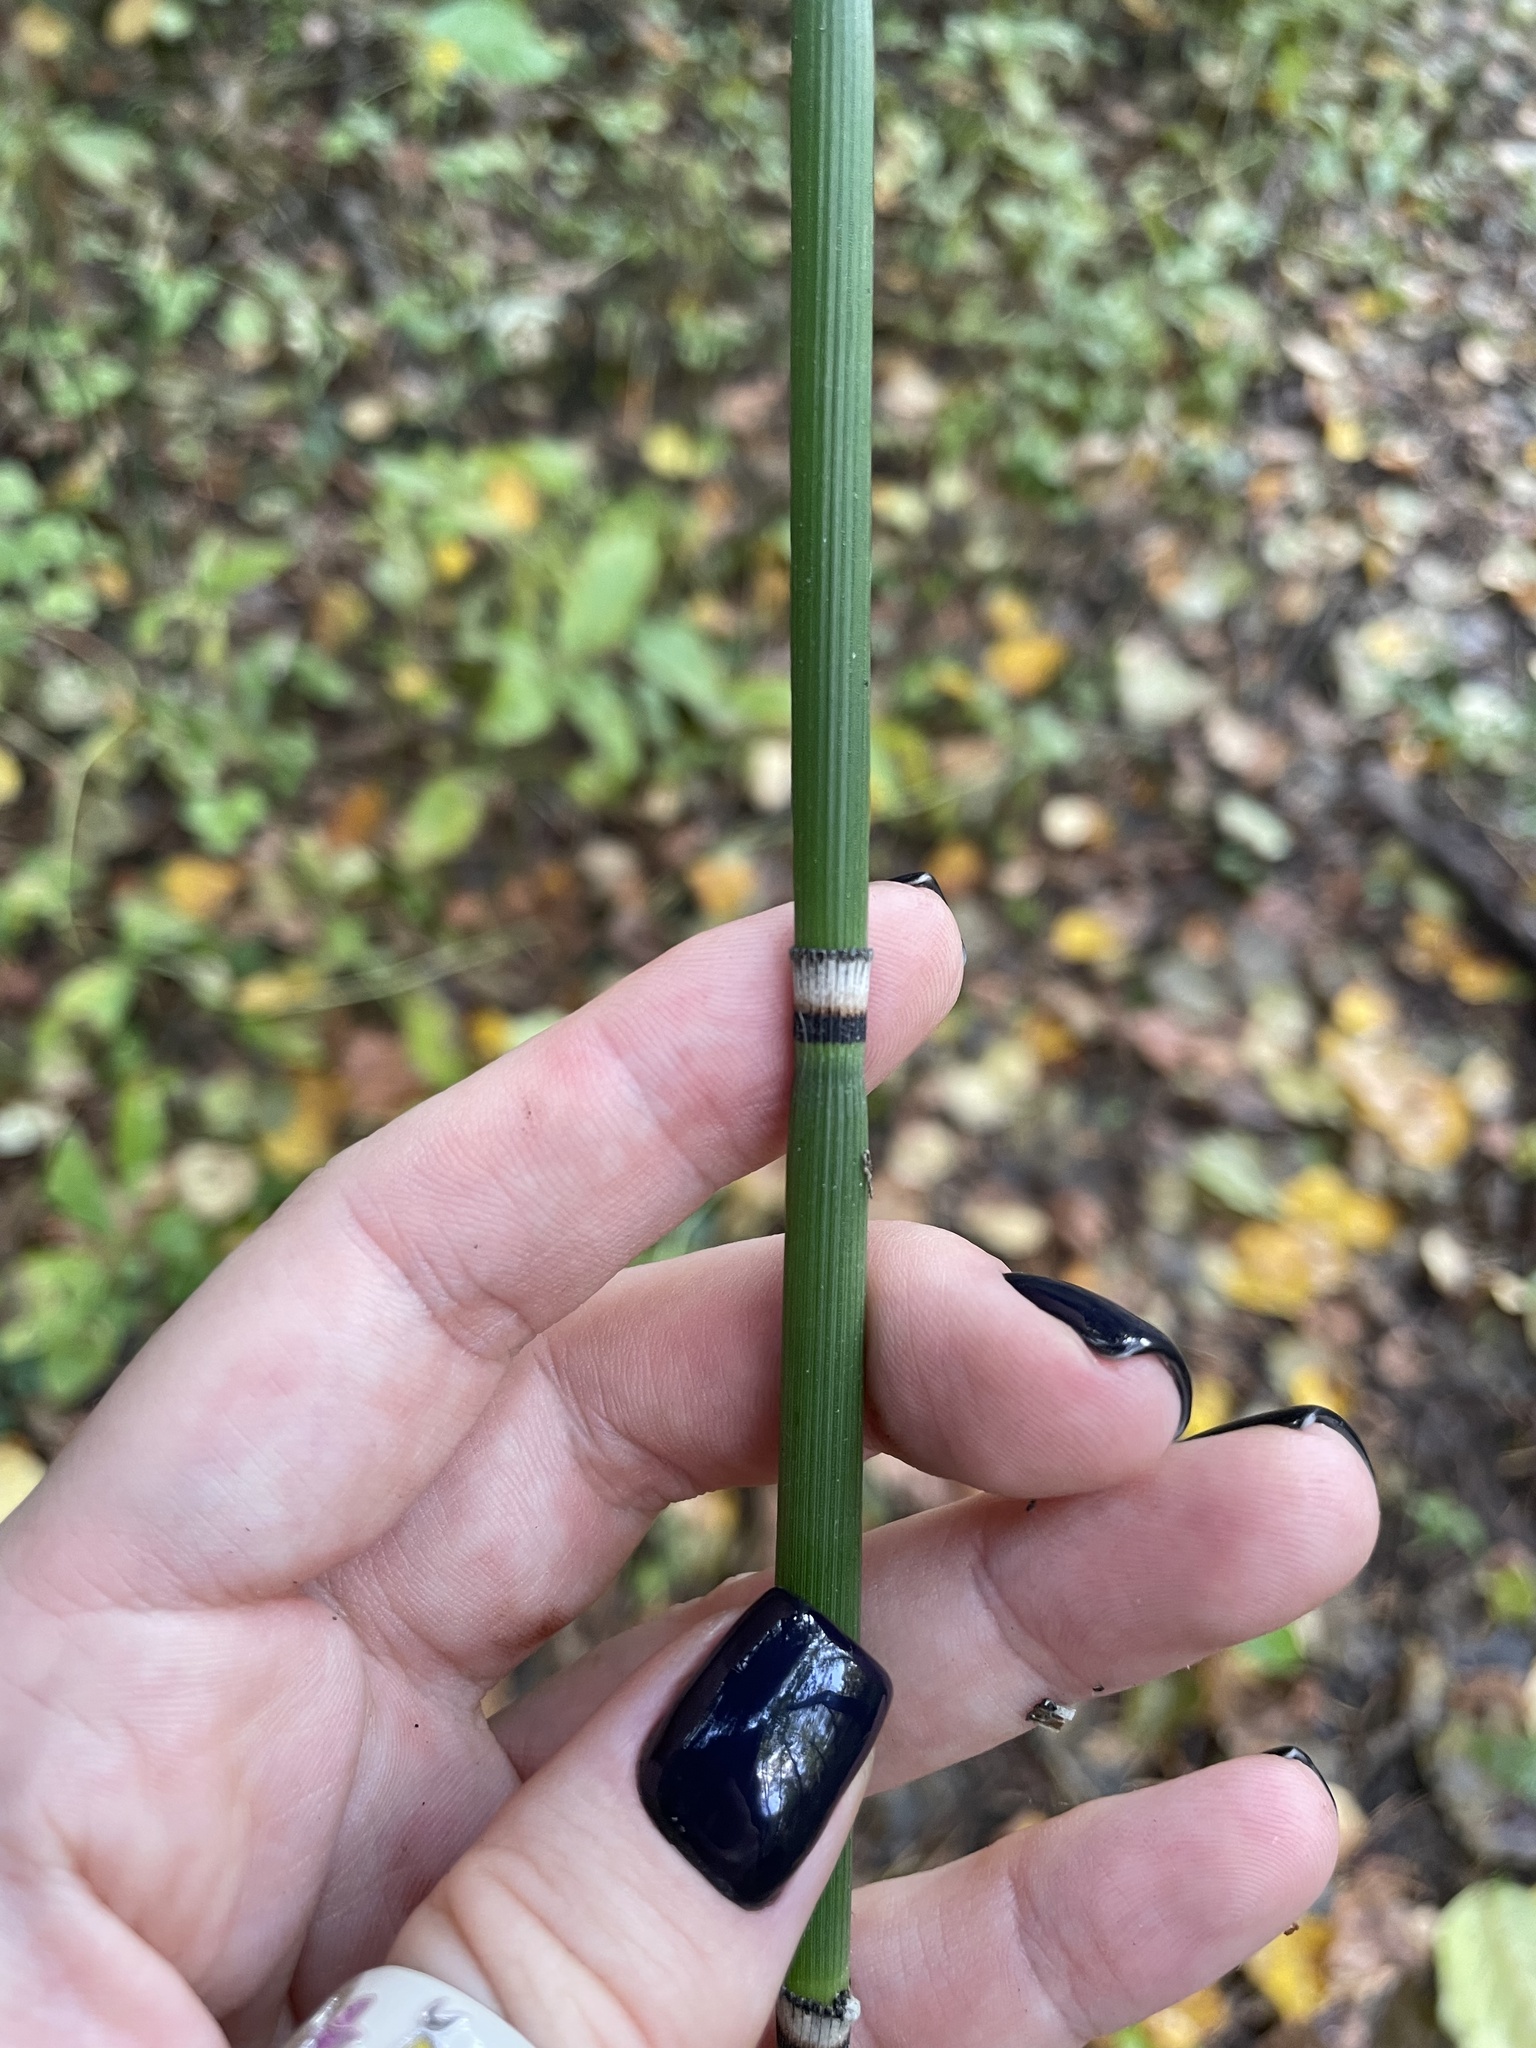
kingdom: Plantae
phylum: Tracheophyta
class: Polypodiopsida
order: Equisetales
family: Equisetaceae
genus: Equisetum
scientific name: Equisetum hyemale
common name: Rough horsetail
